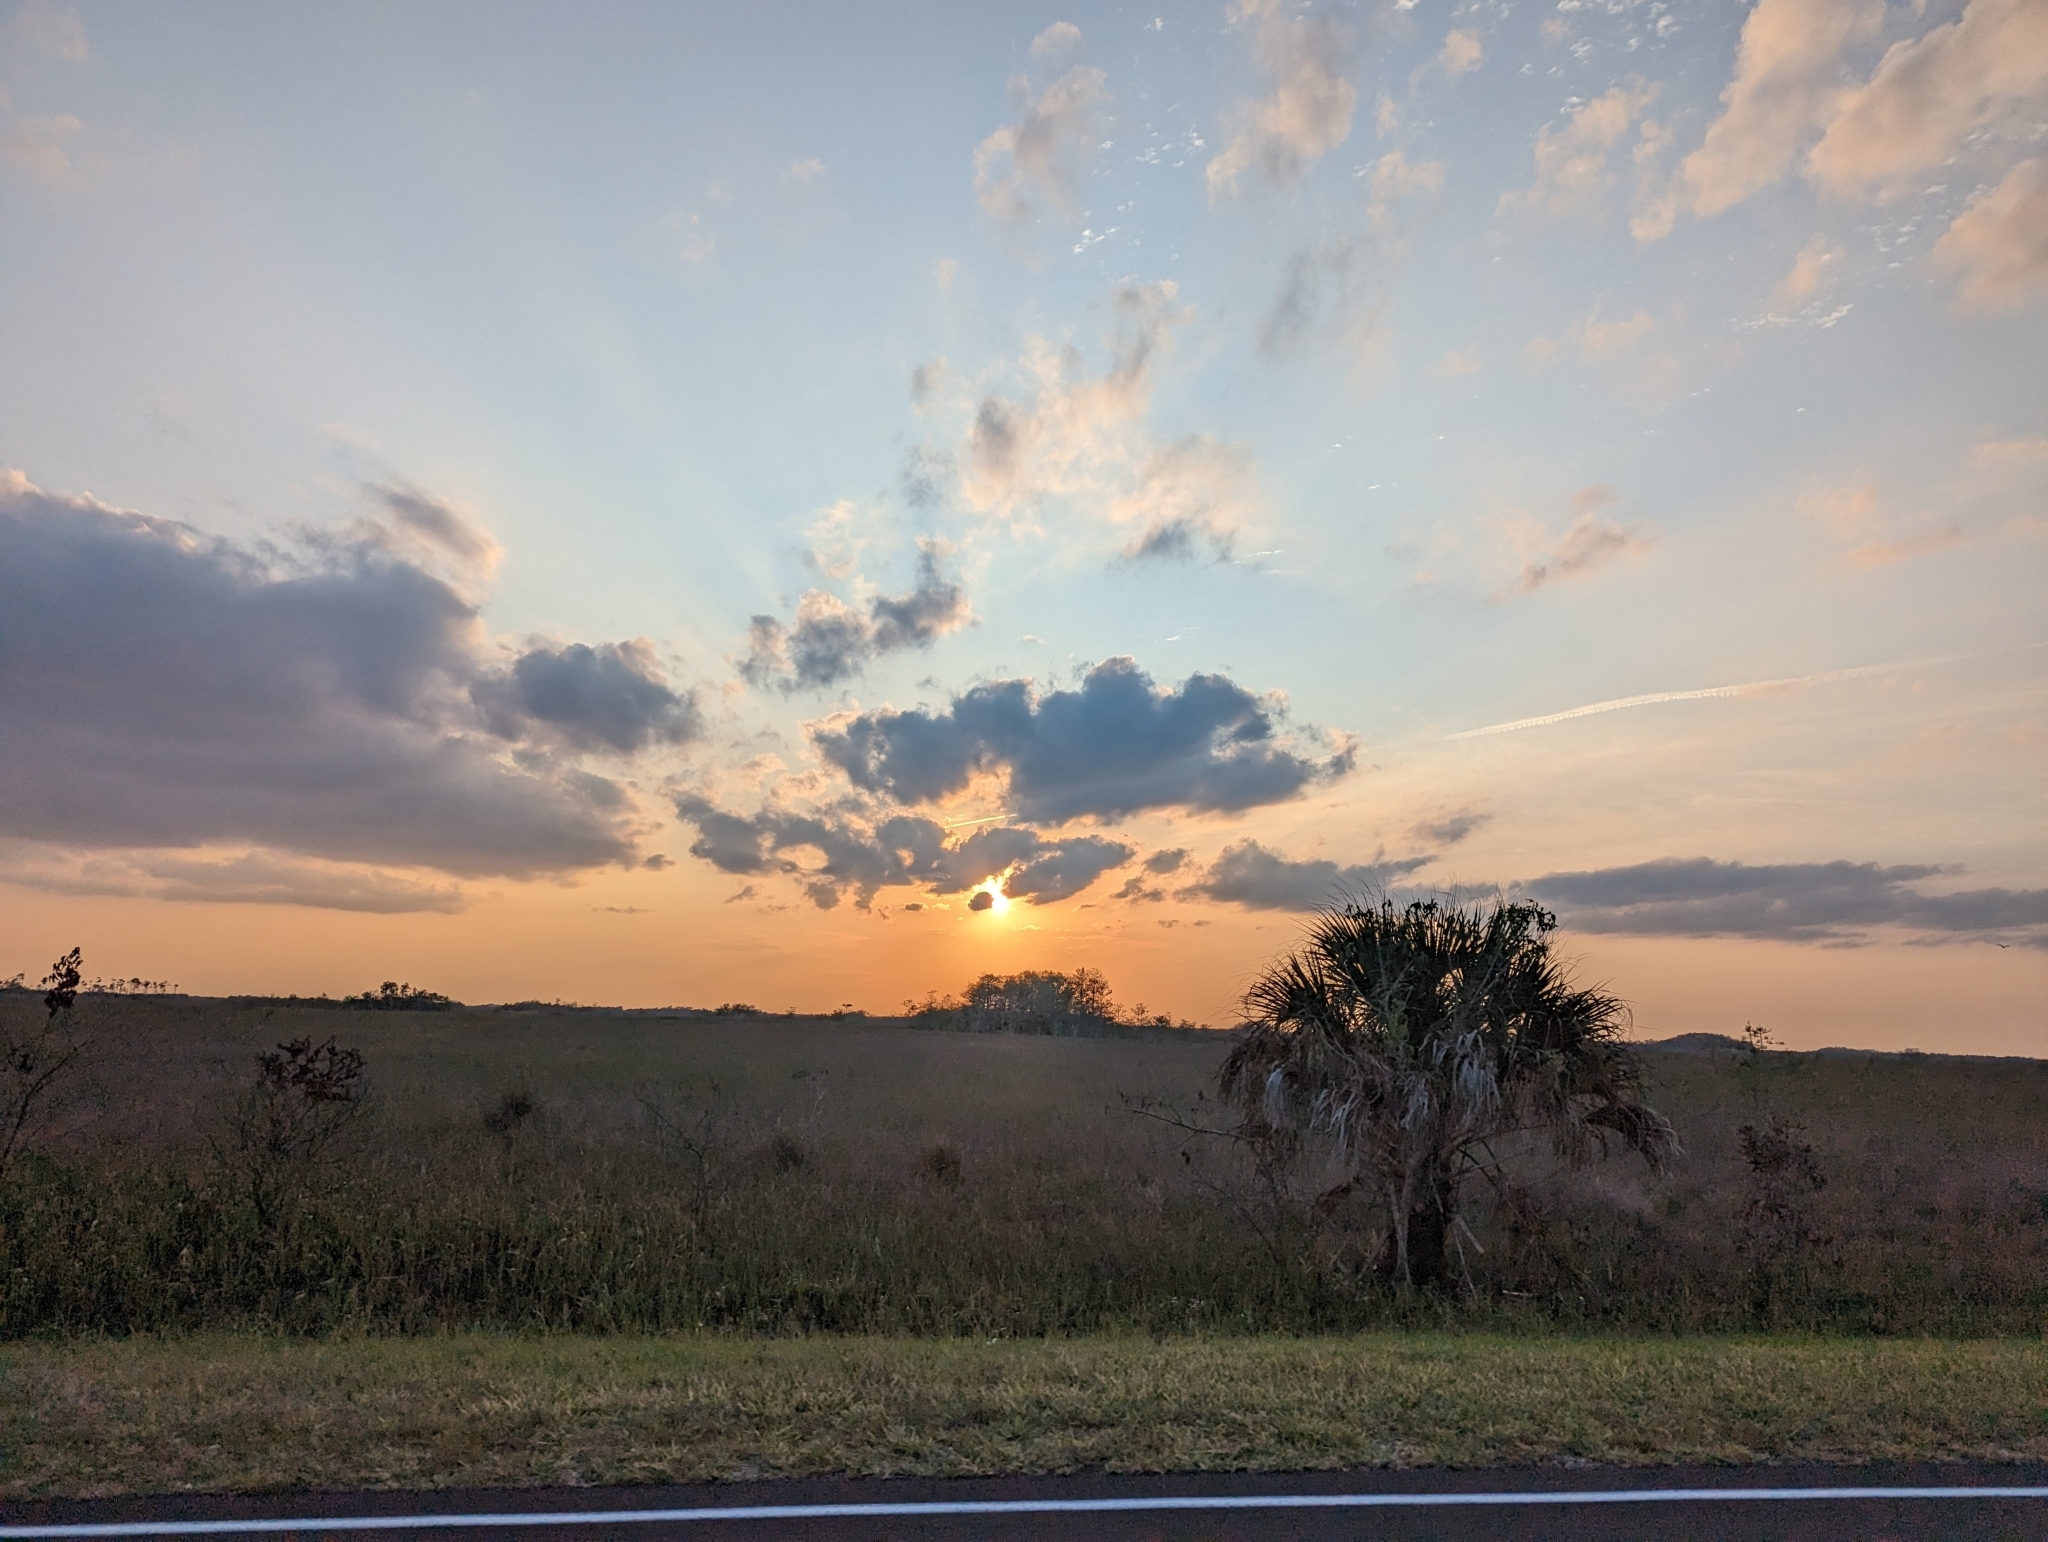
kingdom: Plantae
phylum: Tracheophyta
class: Liliopsida
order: Arecales
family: Arecaceae
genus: Sabal
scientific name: Sabal palmetto
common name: Blue palmetto
